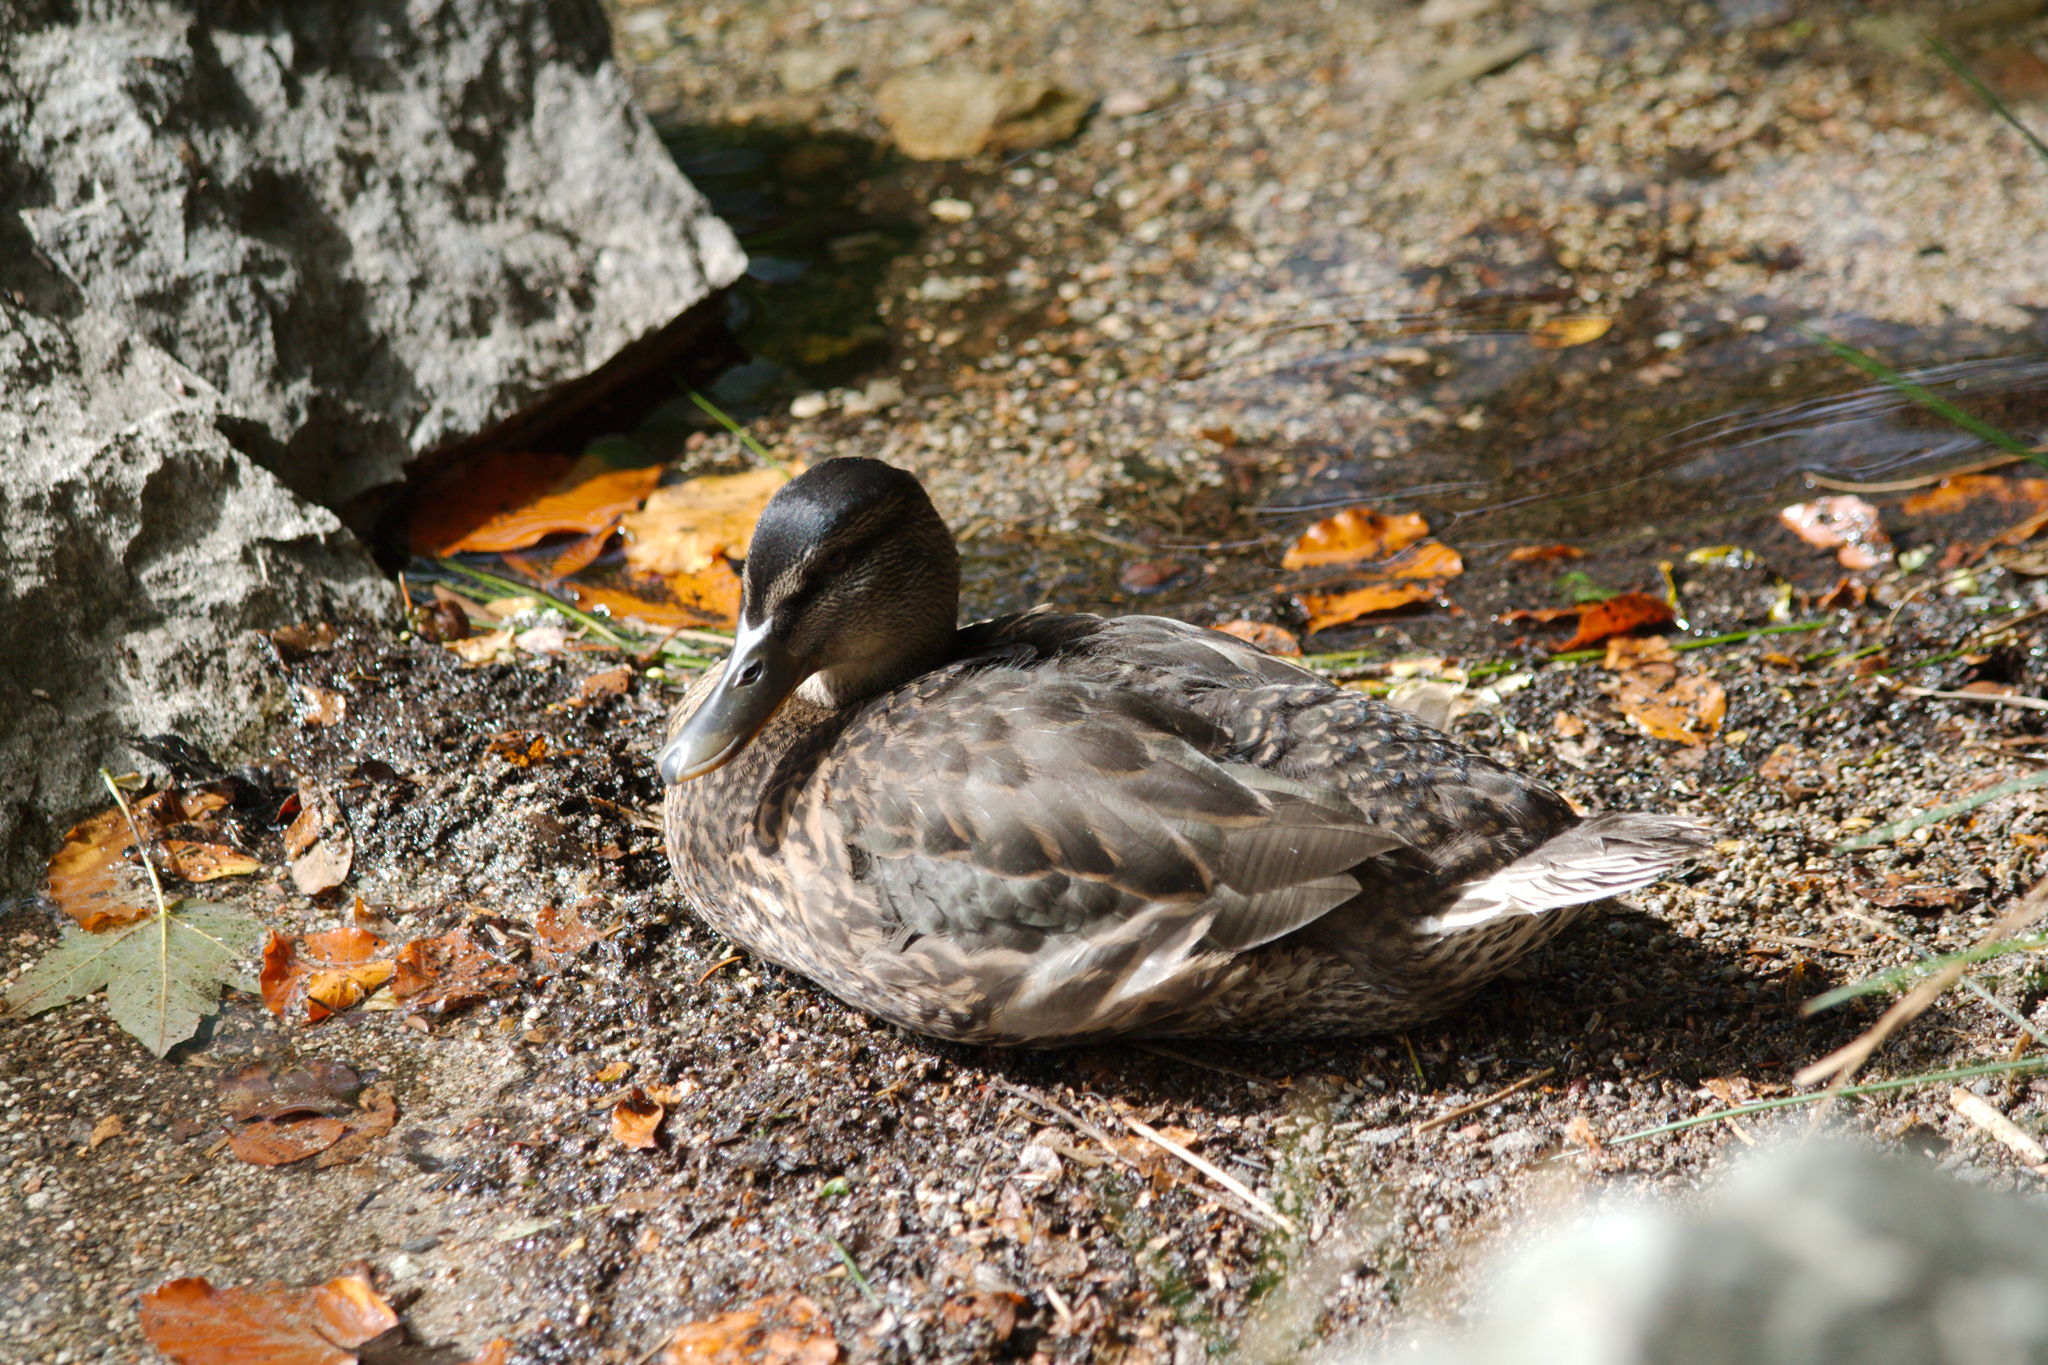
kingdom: Animalia
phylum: Chordata
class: Aves
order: Anseriformes
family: Anatidae
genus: Anas
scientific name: Anas platyrhynchos
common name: Mallard
